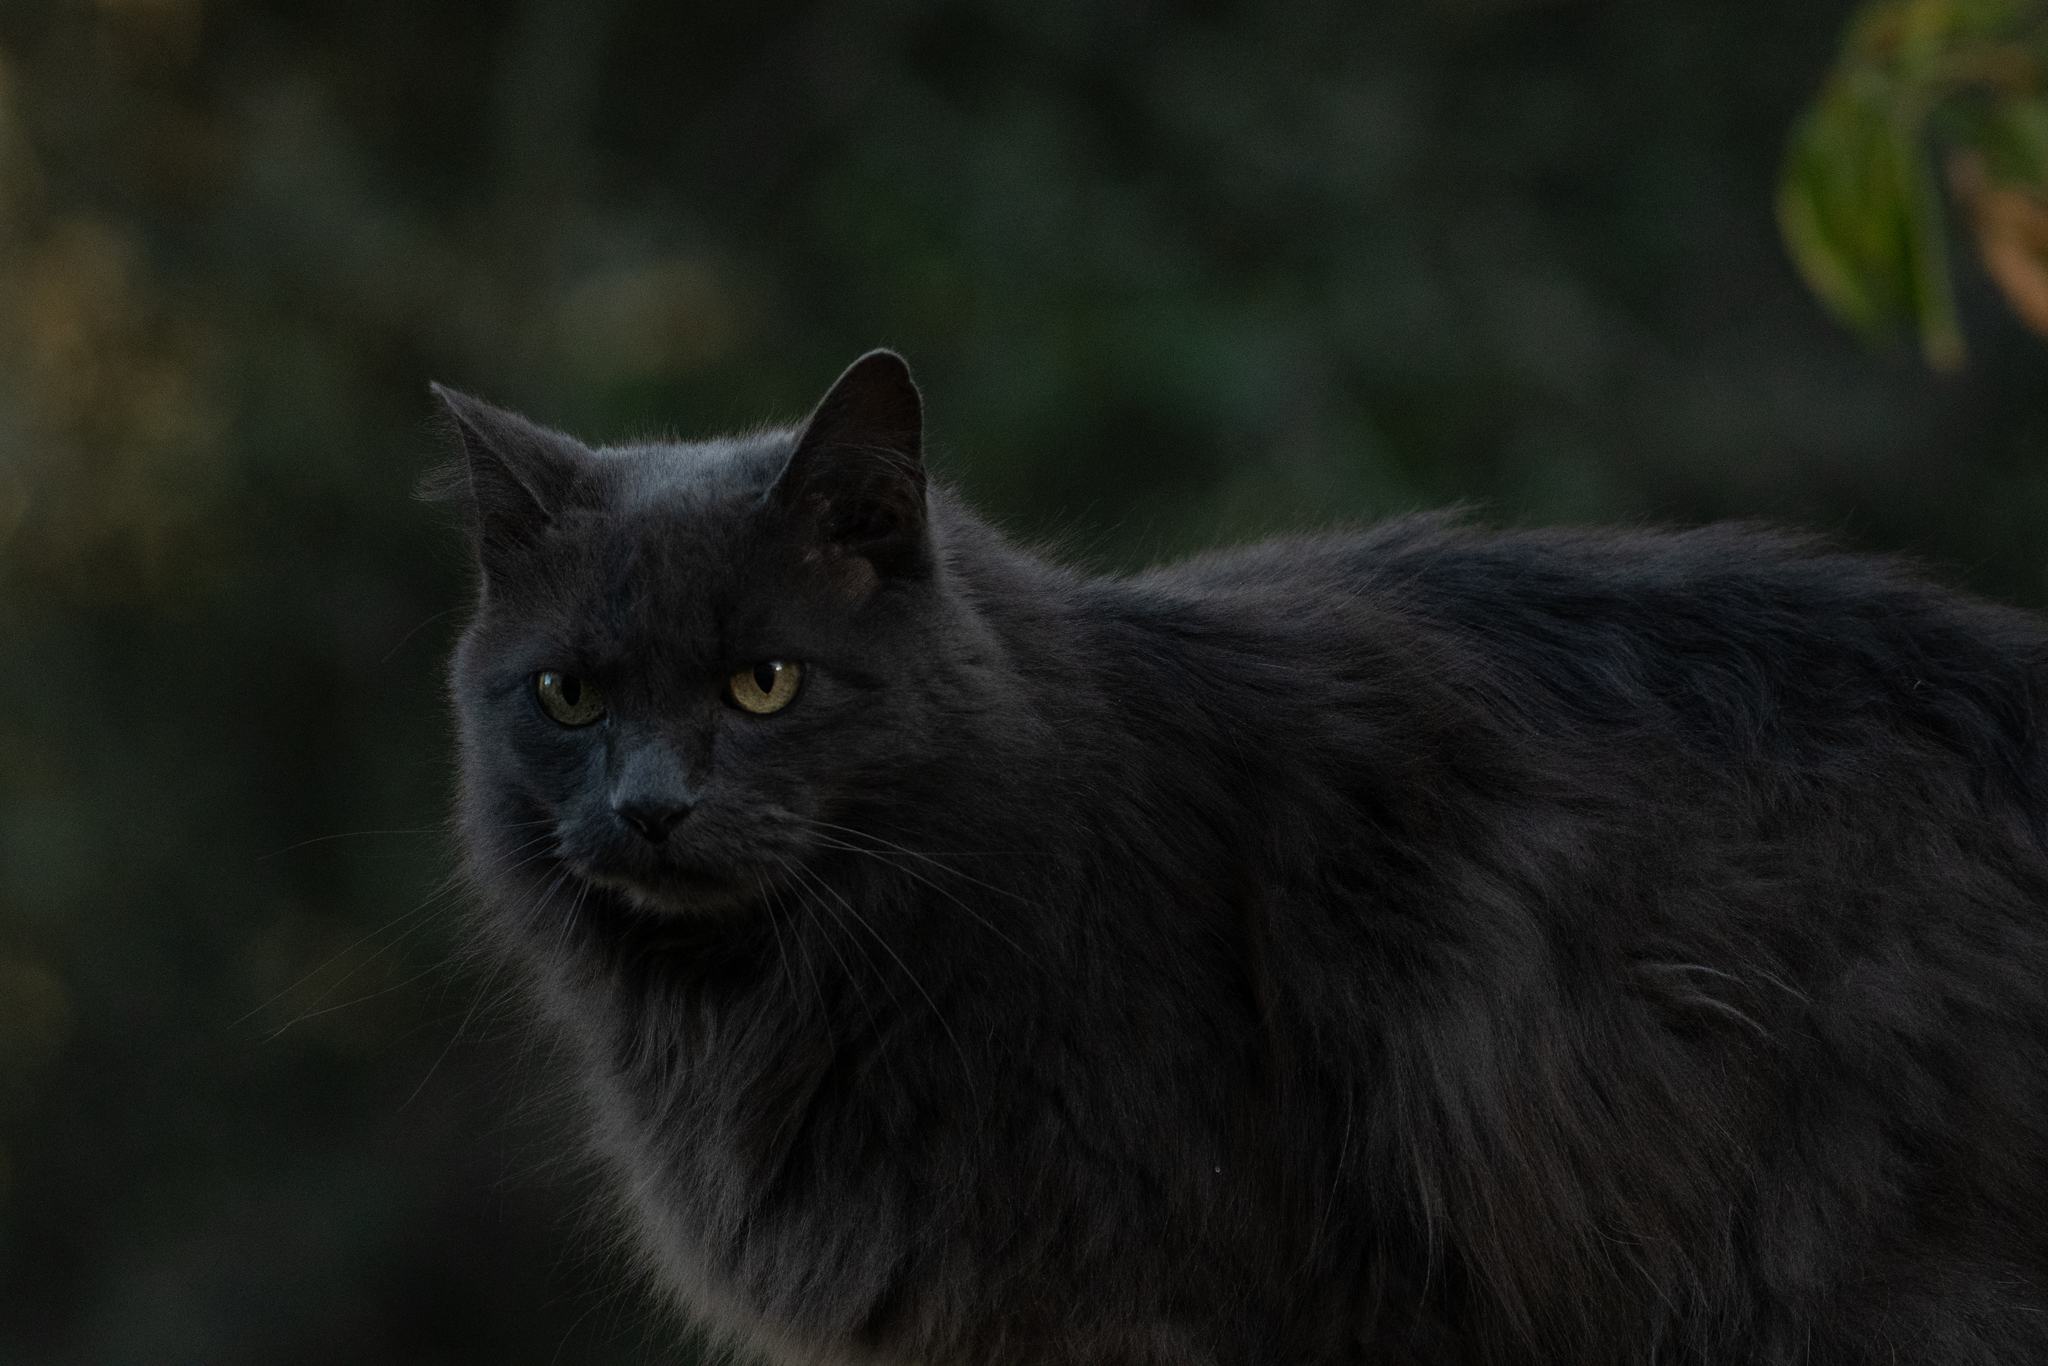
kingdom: Animalia
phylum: Chordata
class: Mammalia
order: Carnivora
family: Felidae
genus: Felis
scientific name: Felis catus
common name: Domestic cat
